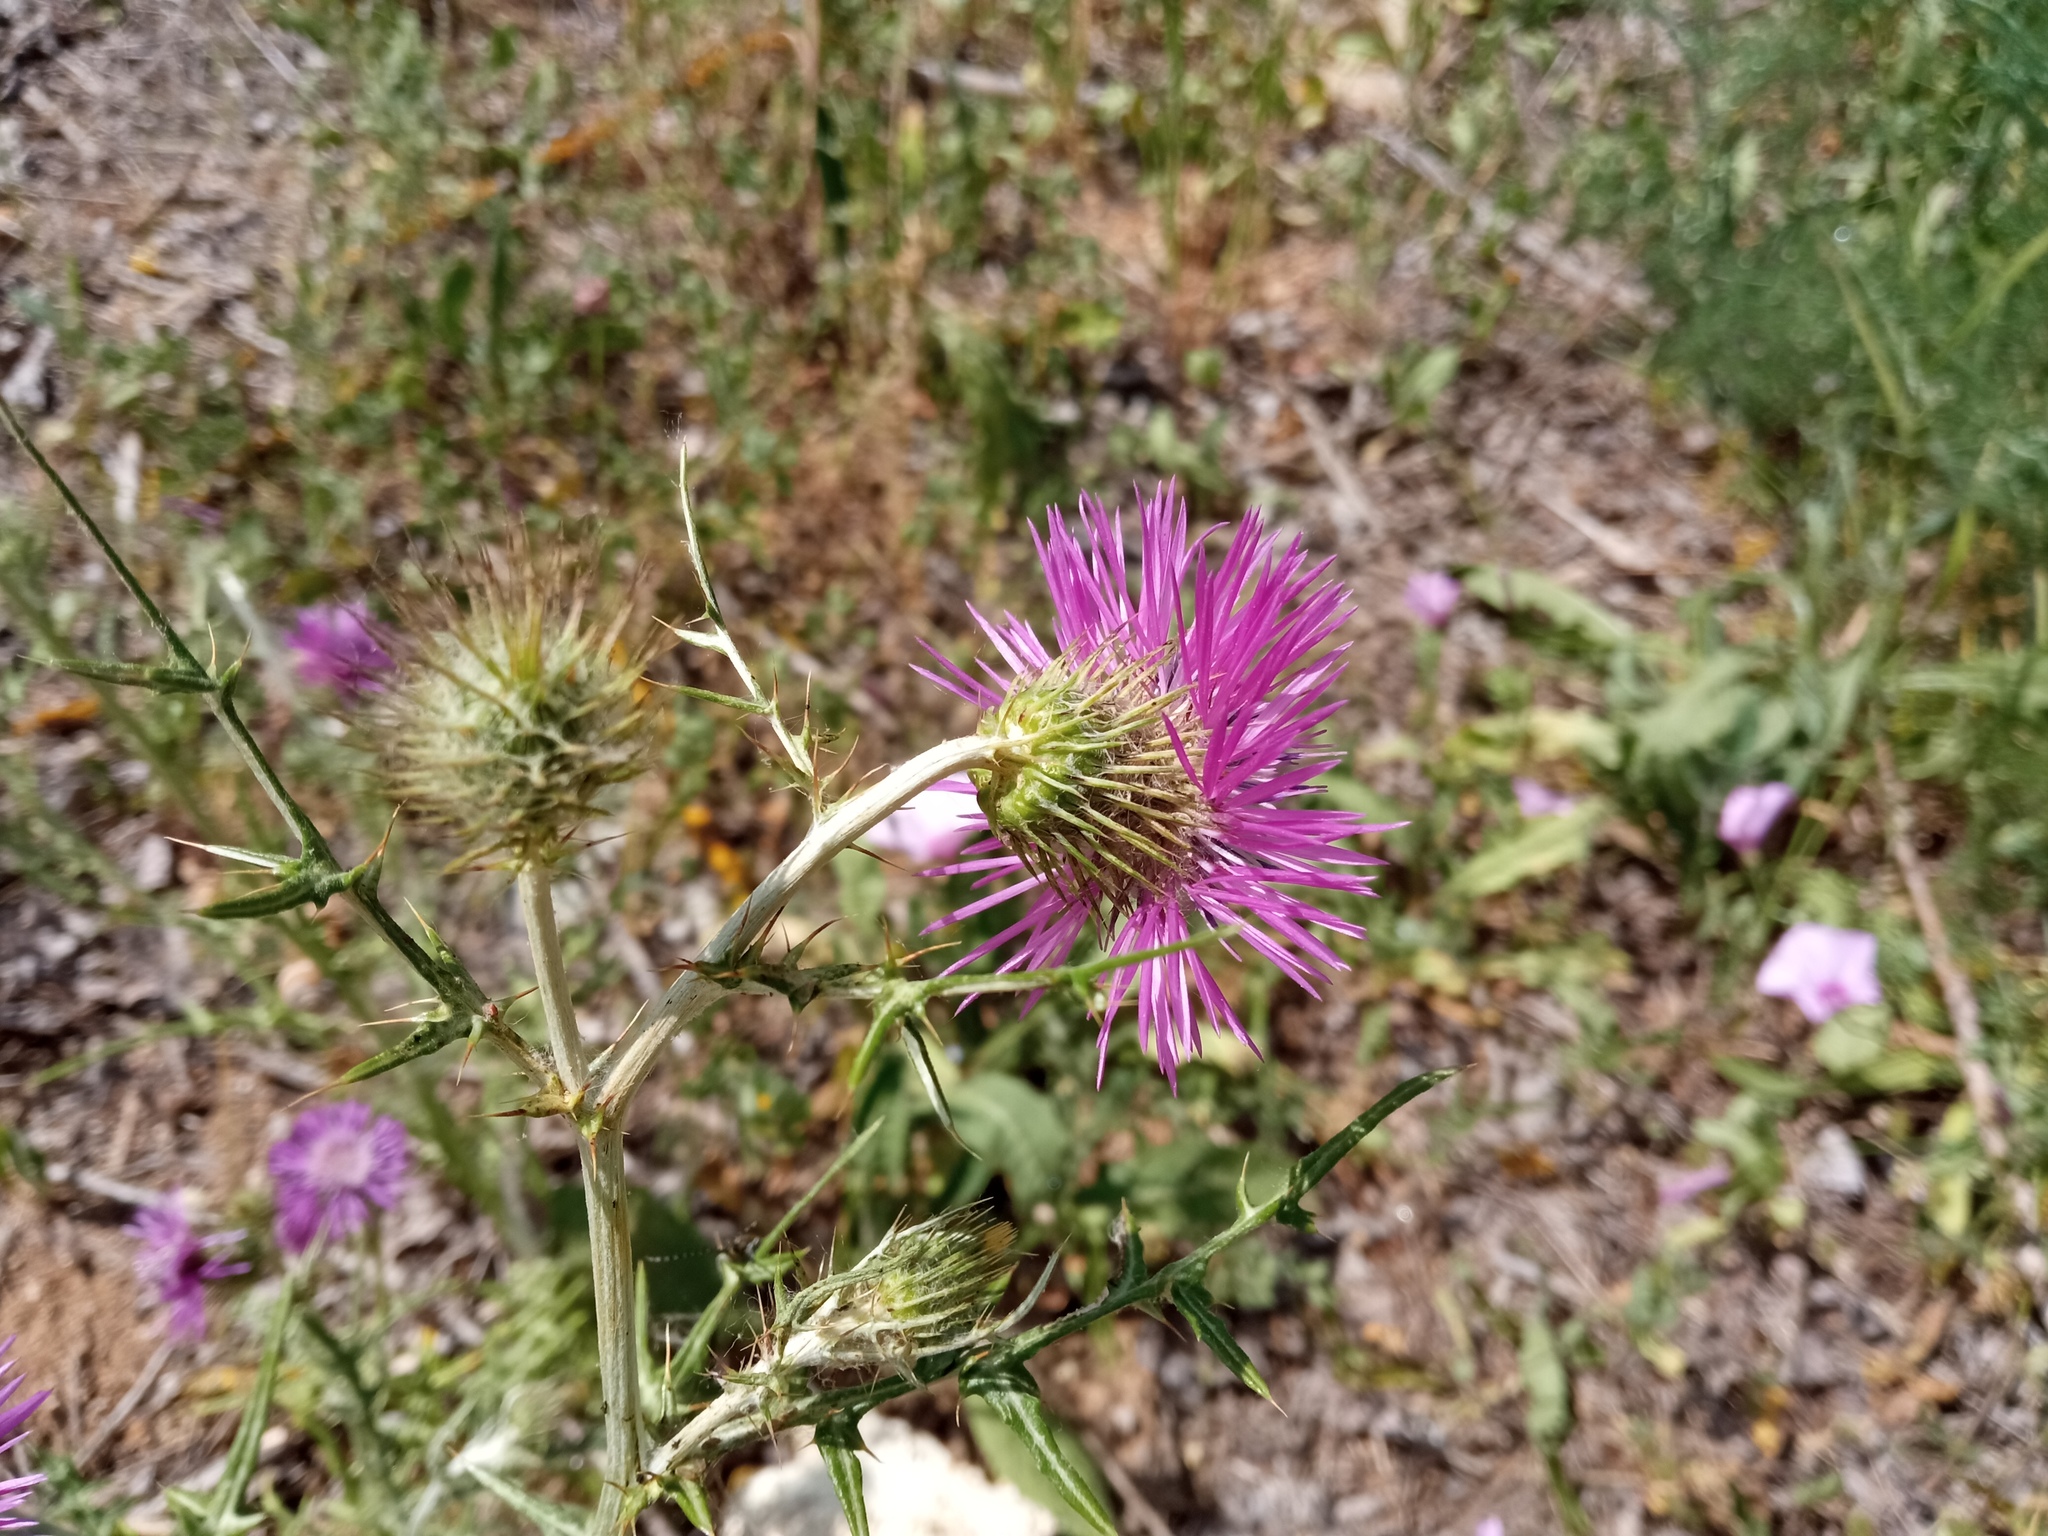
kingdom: Plantae
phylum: Tracheophyta
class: Magnoliopsida
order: Asterales
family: Asteraceae
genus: Galactites
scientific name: Galactites tomentosa
